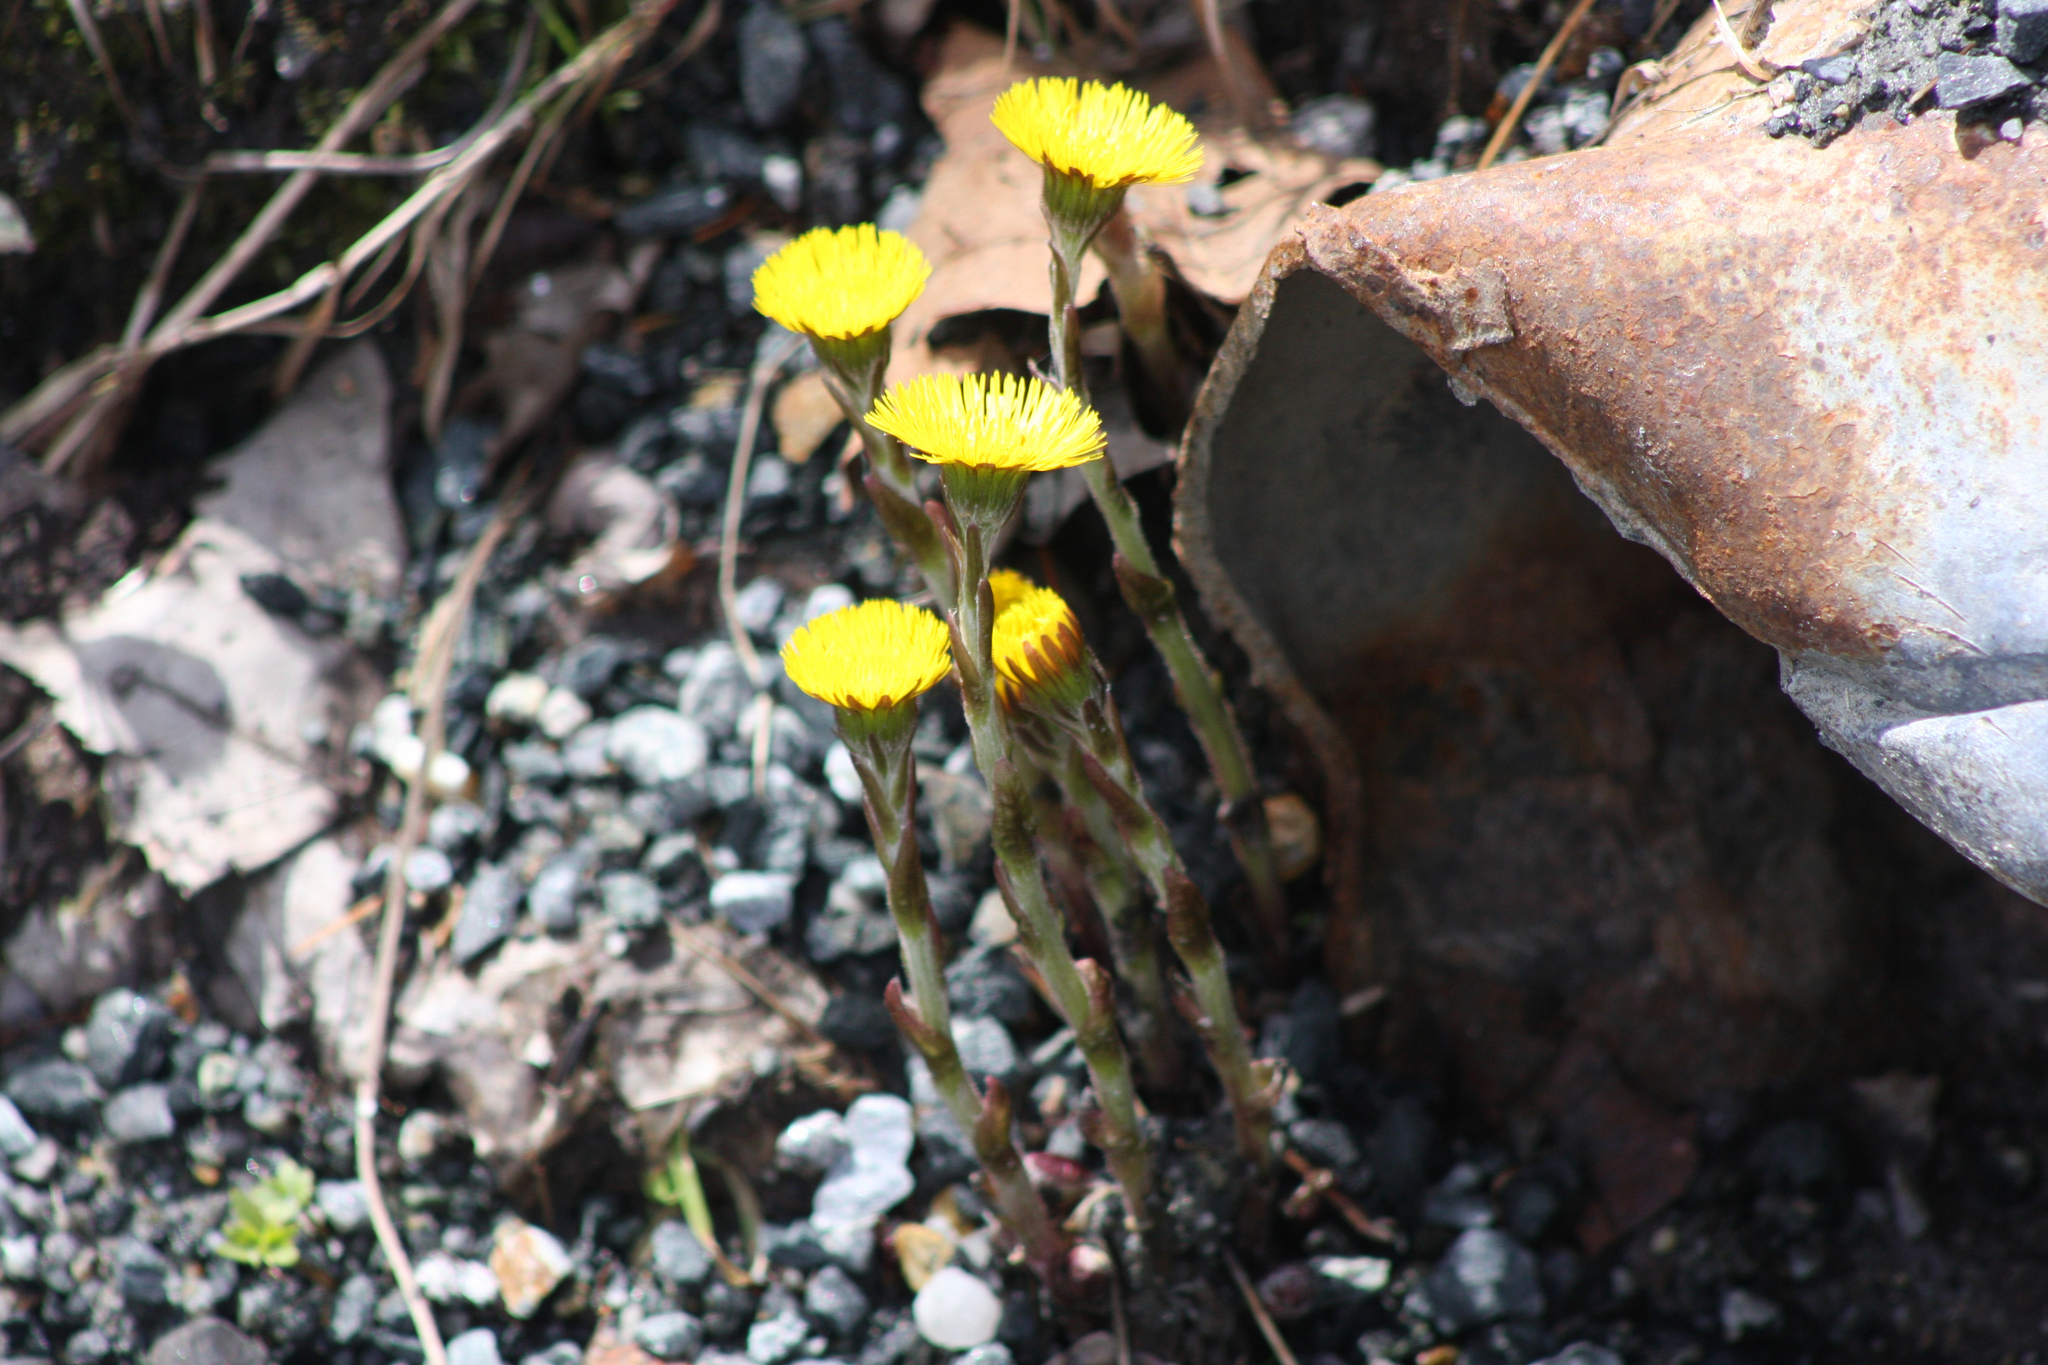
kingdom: Plantae
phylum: Tracheophyta
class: Magnoliopsida
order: Asterales
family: Asteraceae
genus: Tussilago
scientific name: Tussilago farfara
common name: Coltsfoot
